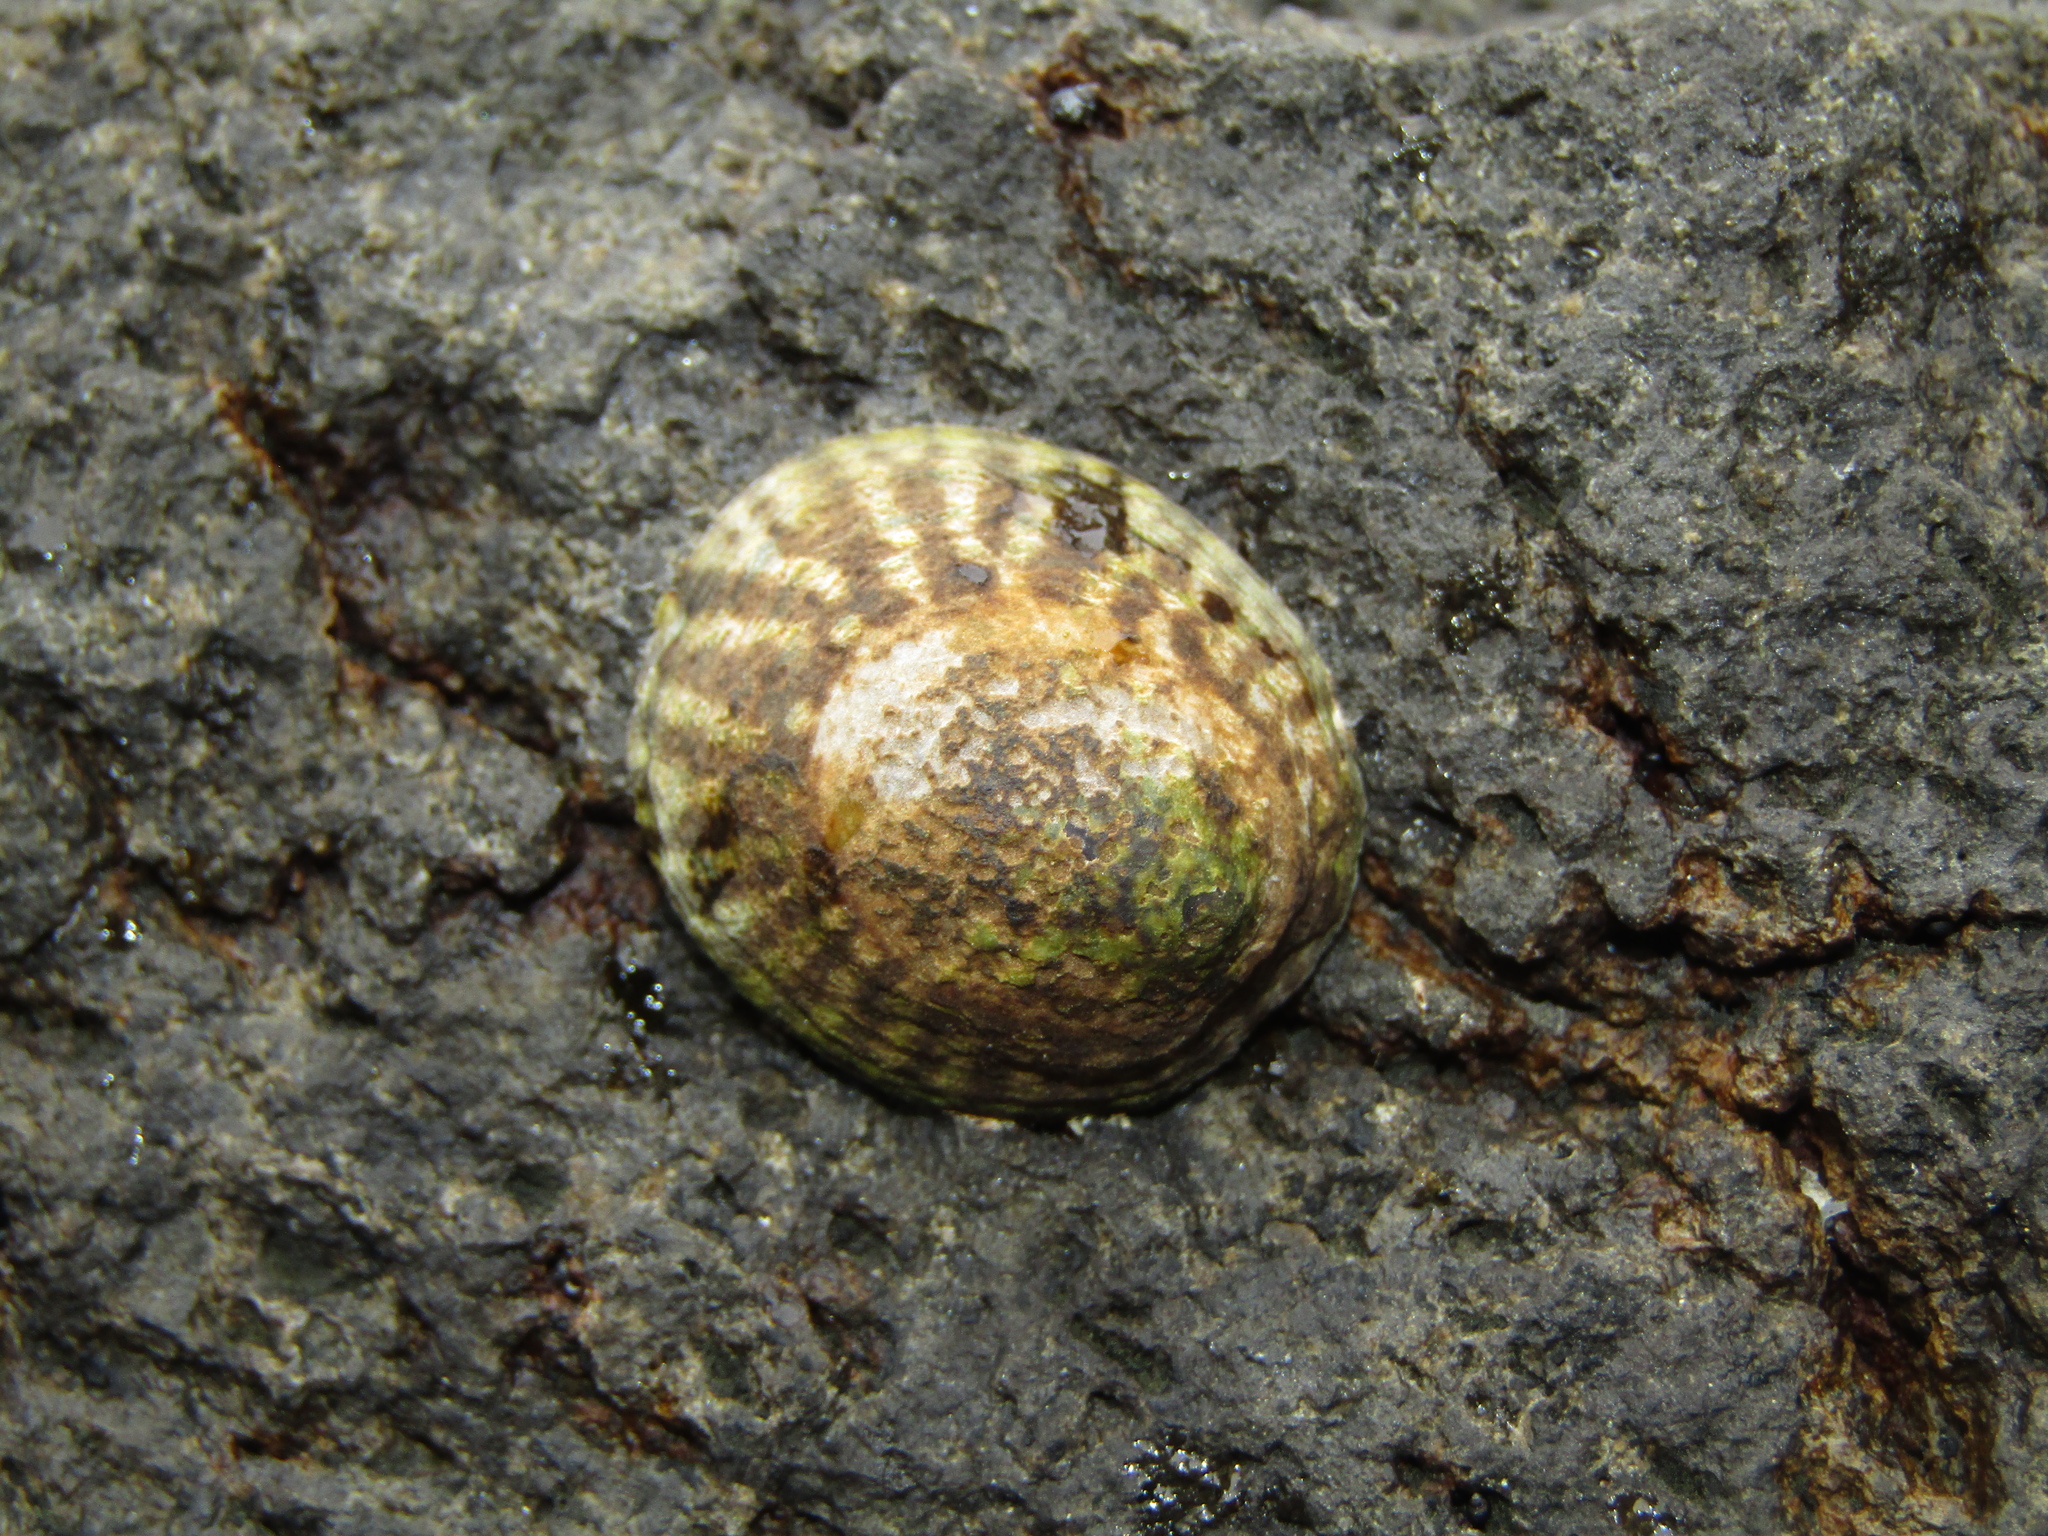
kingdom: Animalia
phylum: Mollusca
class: Gastropoda
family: Lottiidae
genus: Notoacmea
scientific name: Notoacmea pileopsis
